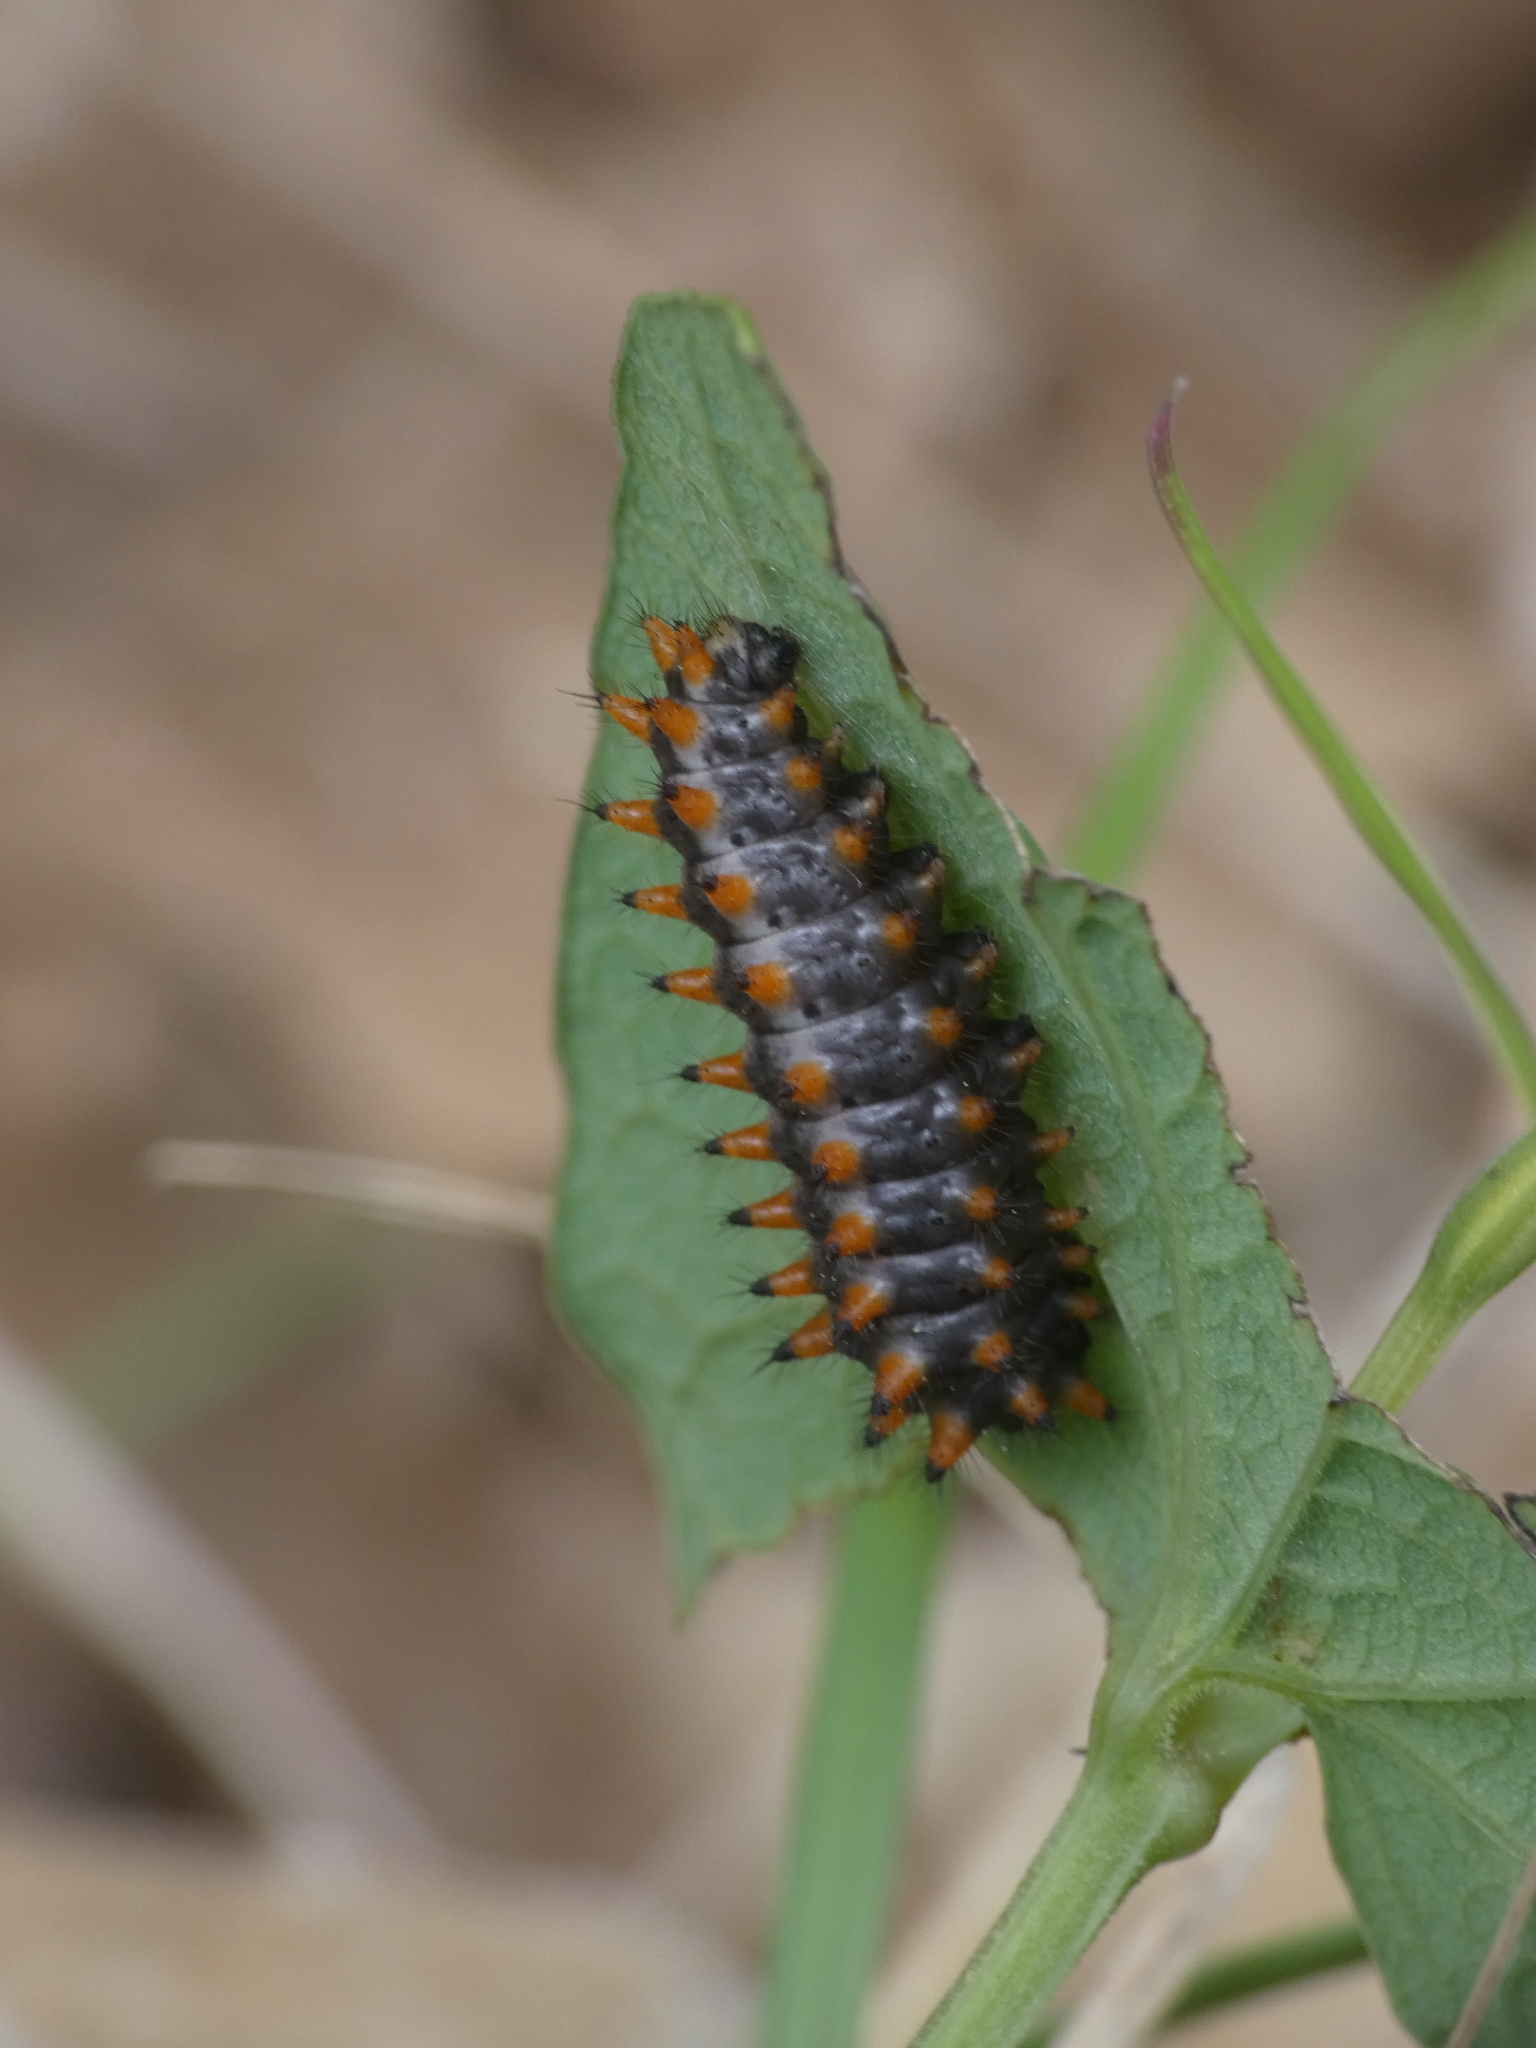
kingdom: Animalia
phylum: Arthropoda
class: Insecta
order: Lepidoptera
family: Papilionidae
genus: Zerynthia
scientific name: Zerynthia polyxena
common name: Southern festoon
